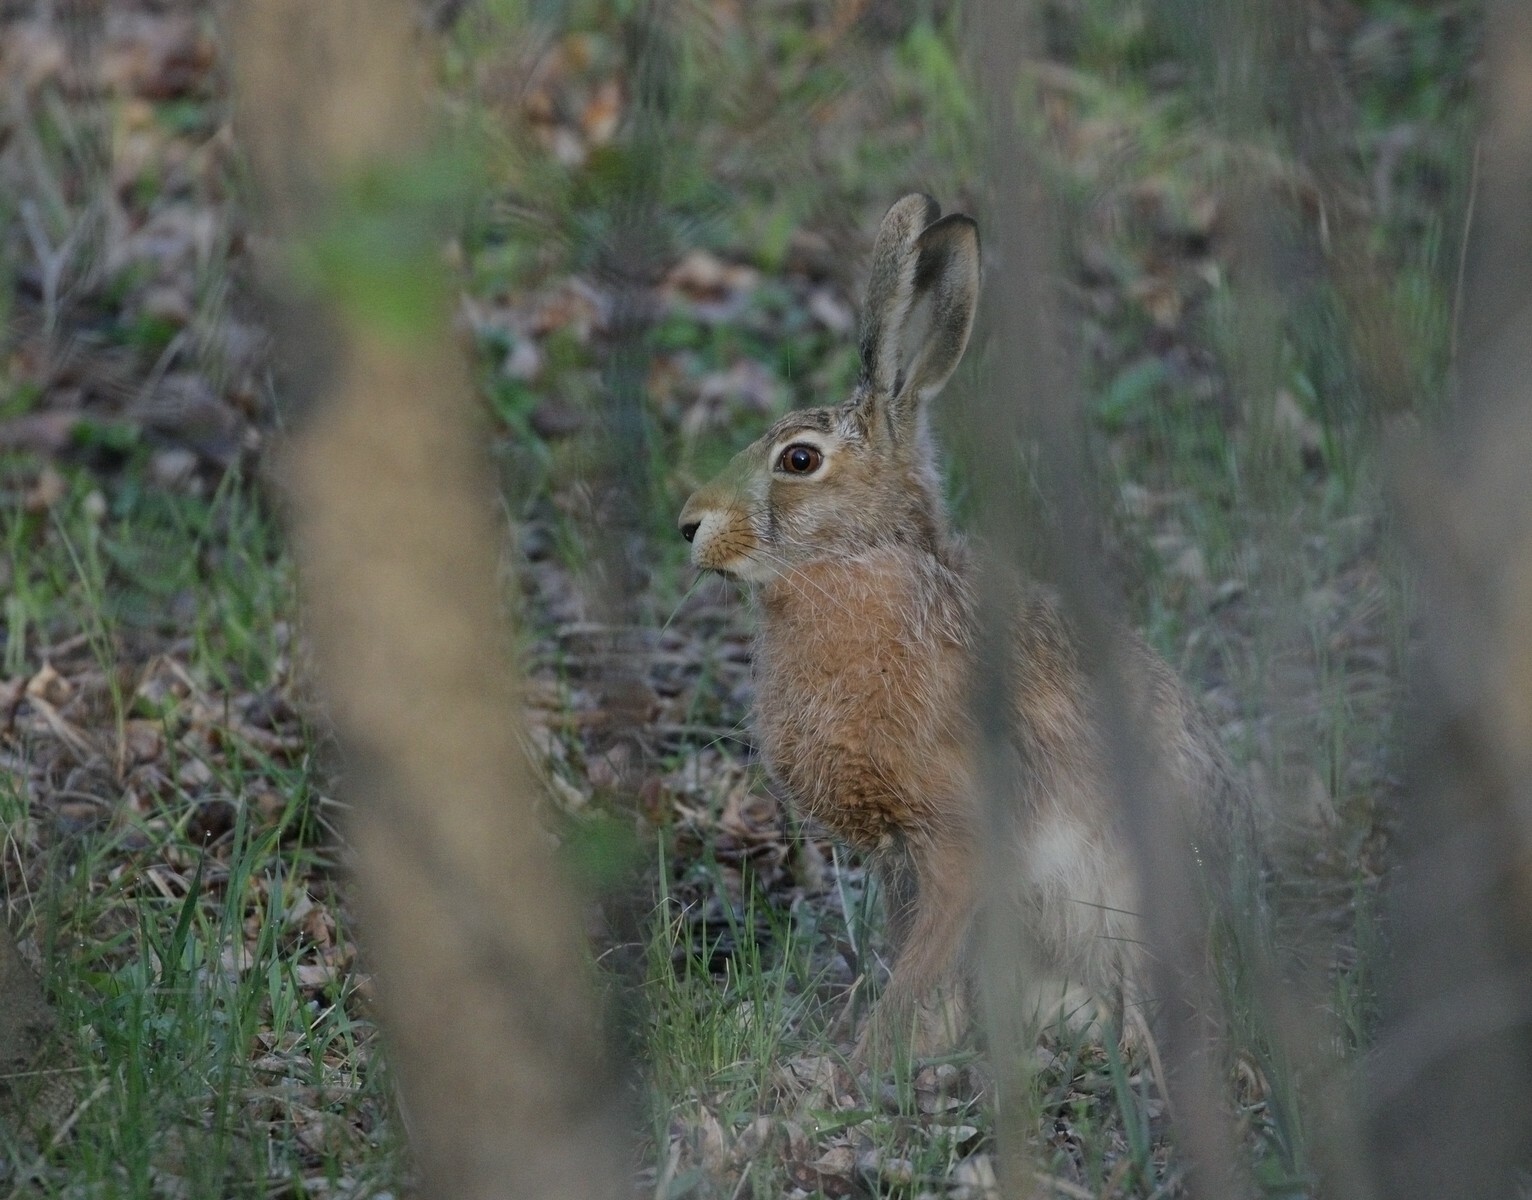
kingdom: Animalia
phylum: Chordata
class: Mammalia
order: Lagomorpha
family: Leporidae
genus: Lepus
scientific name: Lepus europaeus
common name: European hare
